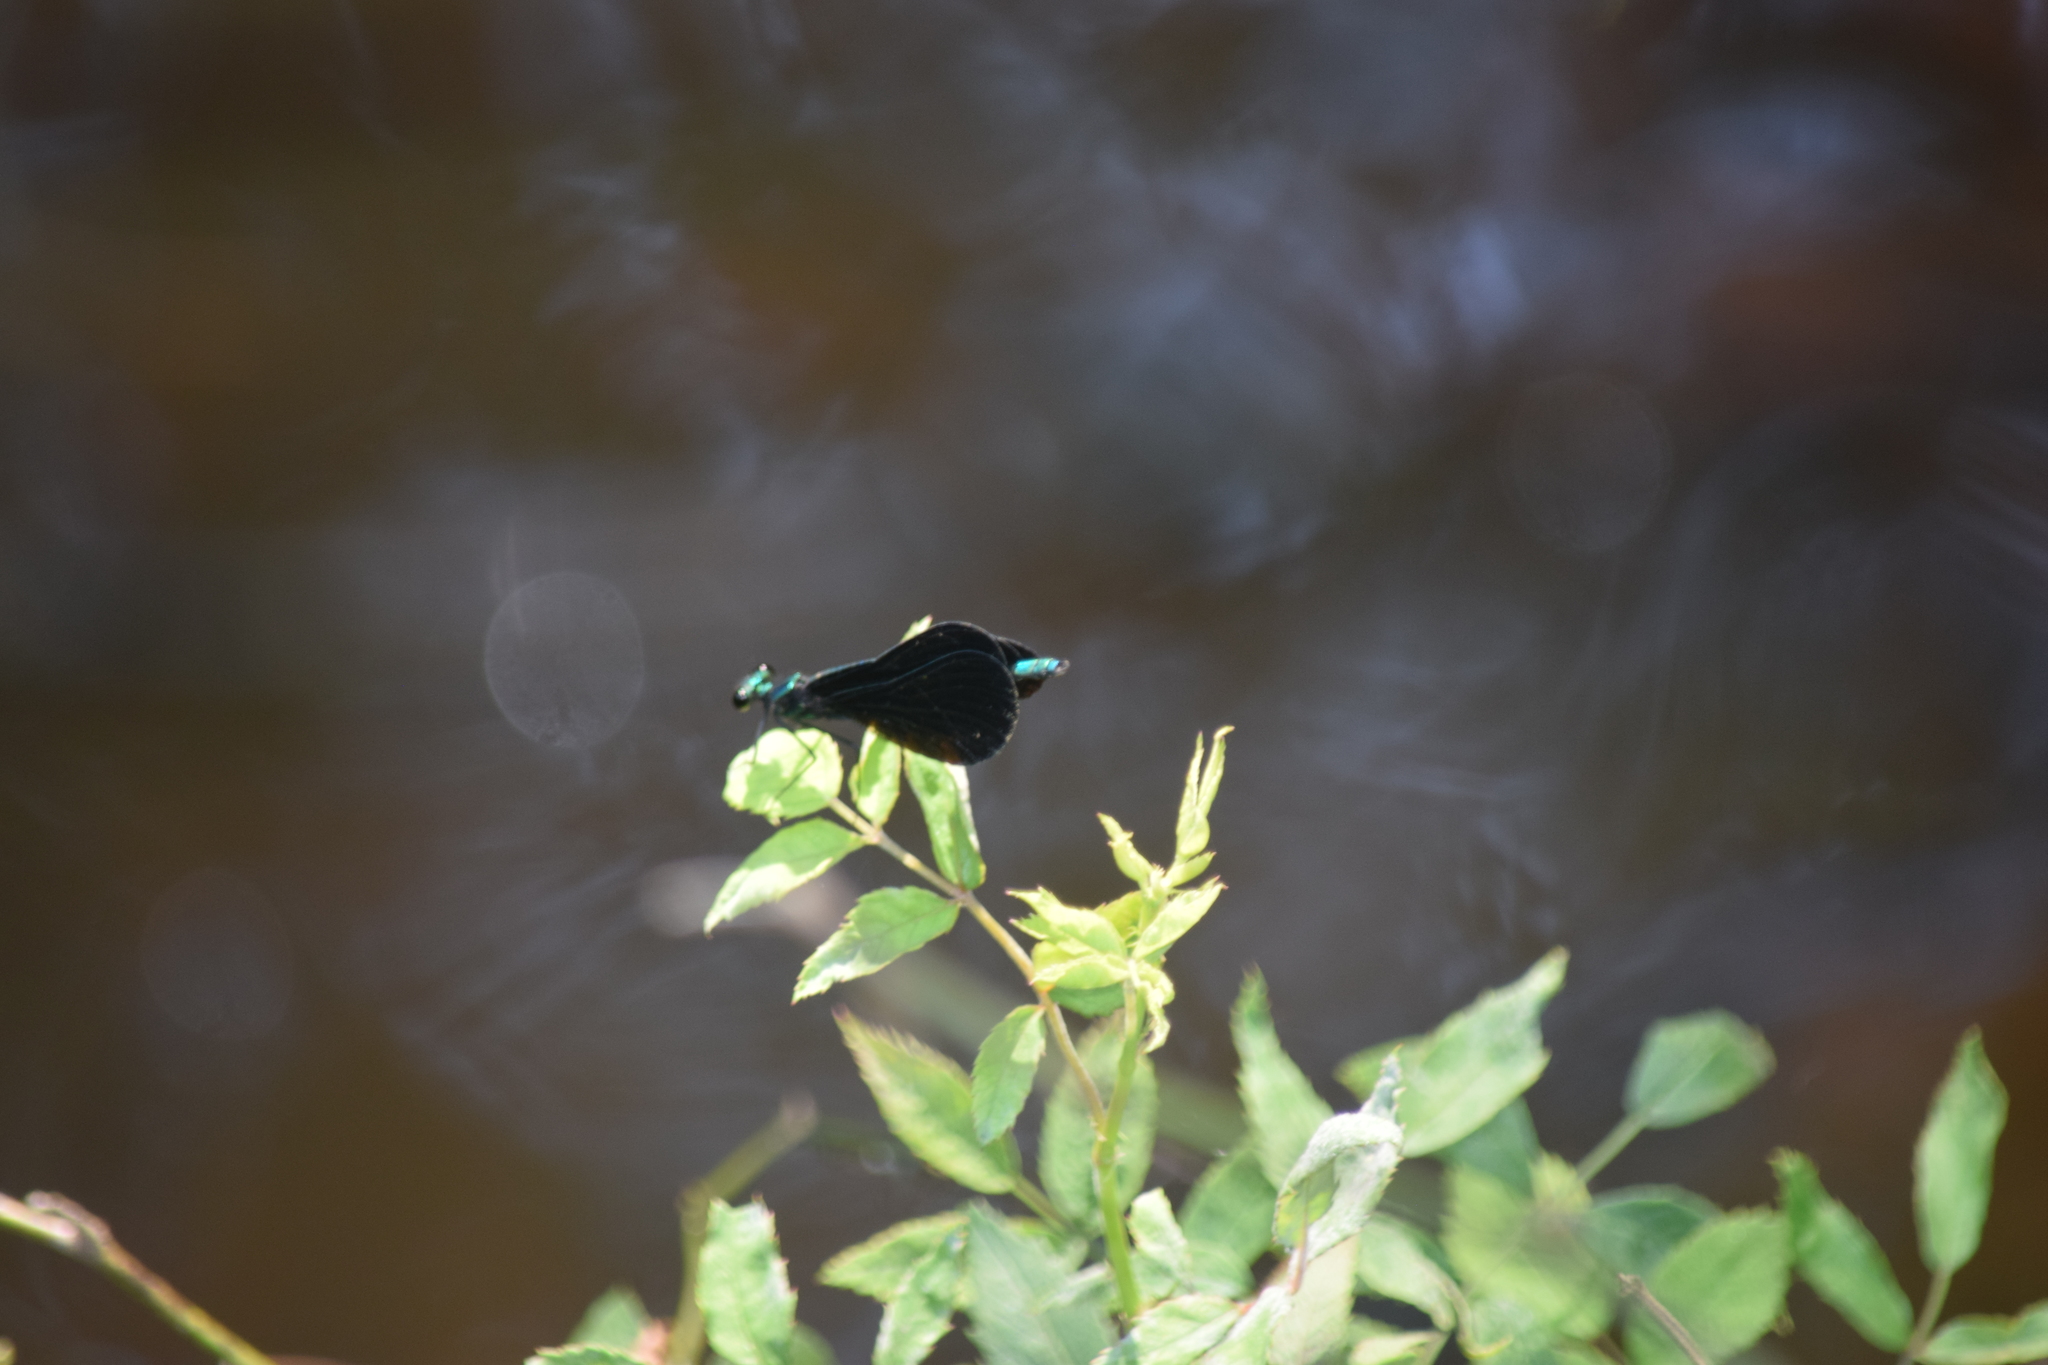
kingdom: Animalia
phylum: Arthropoda
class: Insecta
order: Odonata
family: Calopterygidae
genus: Calopteryx
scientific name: Calopteryx maculata
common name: Ebony jewelwing
